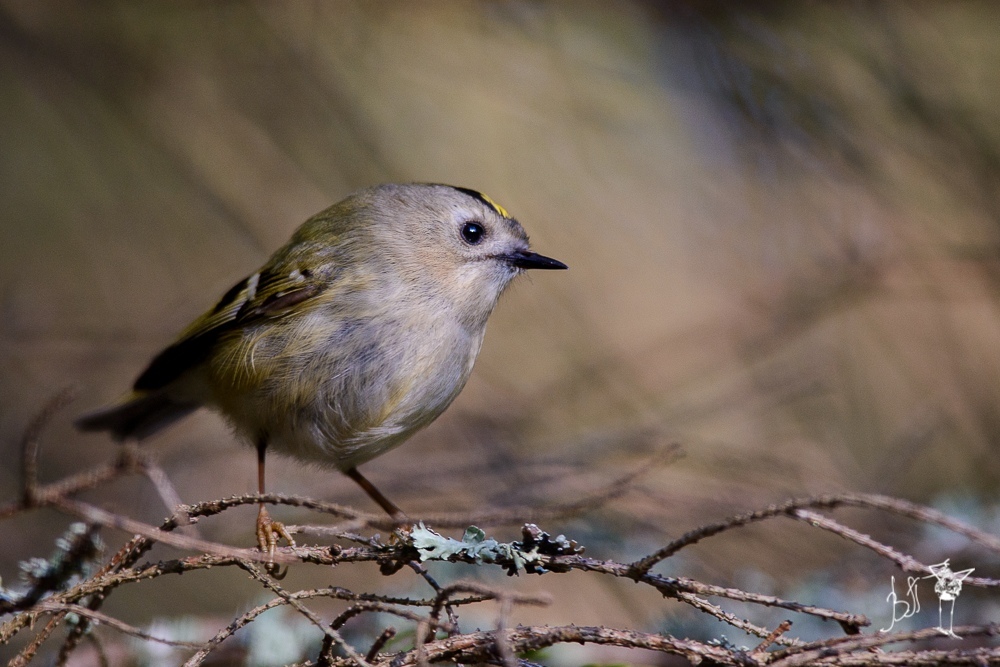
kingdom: Animalia
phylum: Chordata
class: Aves
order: Passeriformes
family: Regulidae
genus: Regulus
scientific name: Regulus regulus
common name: Goldcrest
